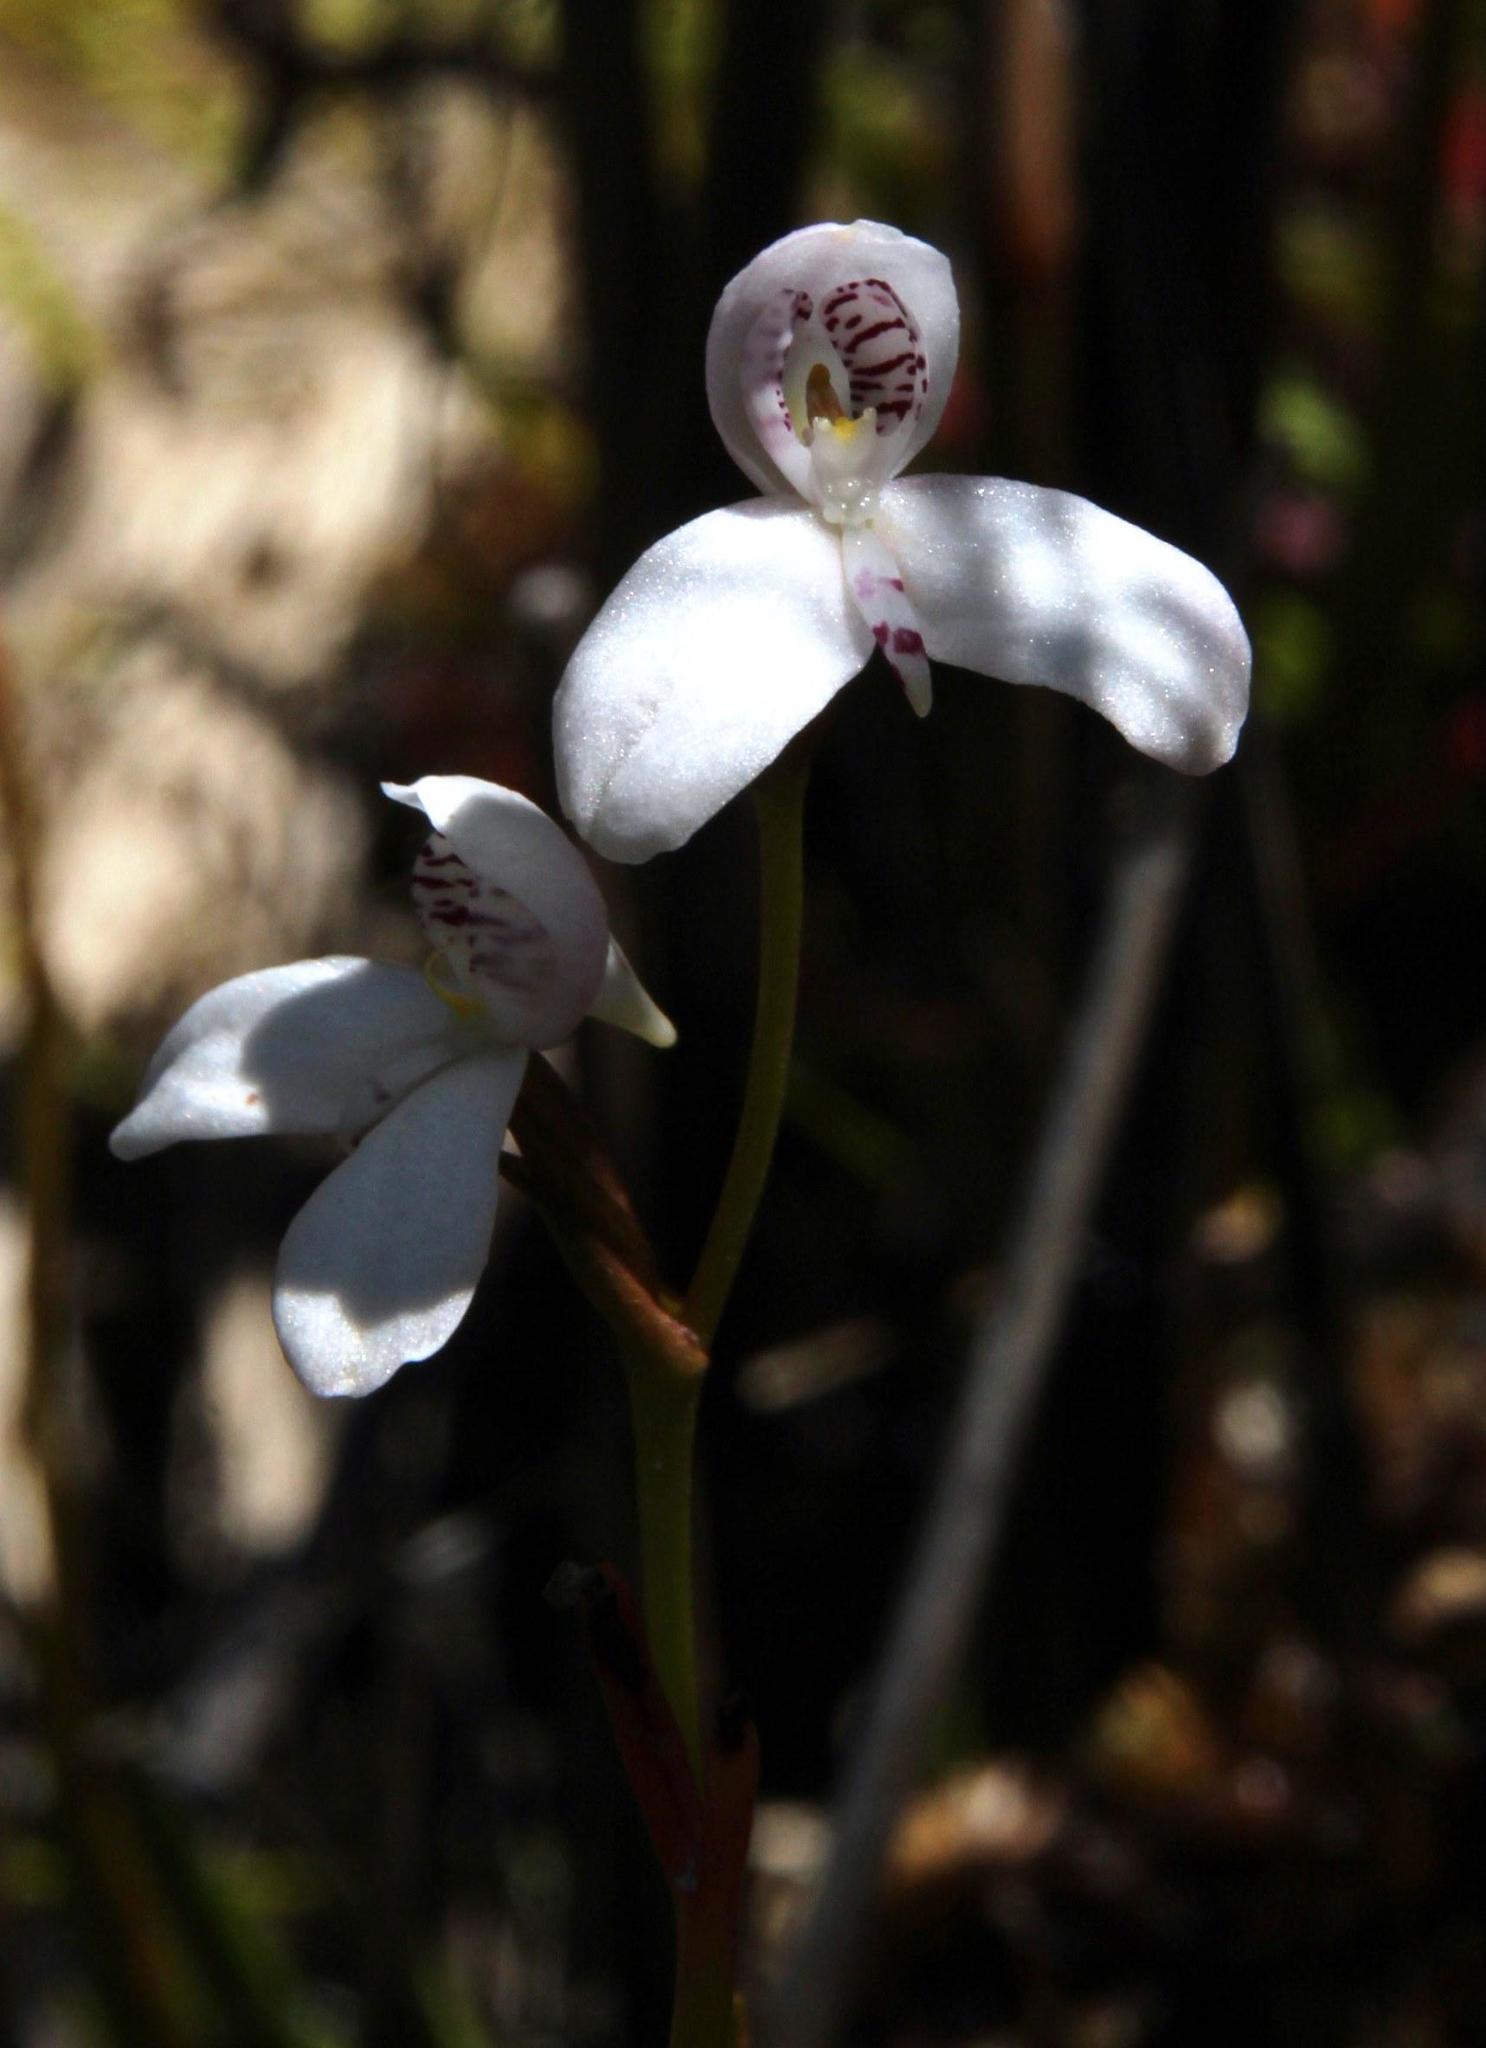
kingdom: Plantae
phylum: Tracheophyta
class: Liliopsida
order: Asparagales
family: Orchidaceae
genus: Disa
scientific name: Disa caulescens
